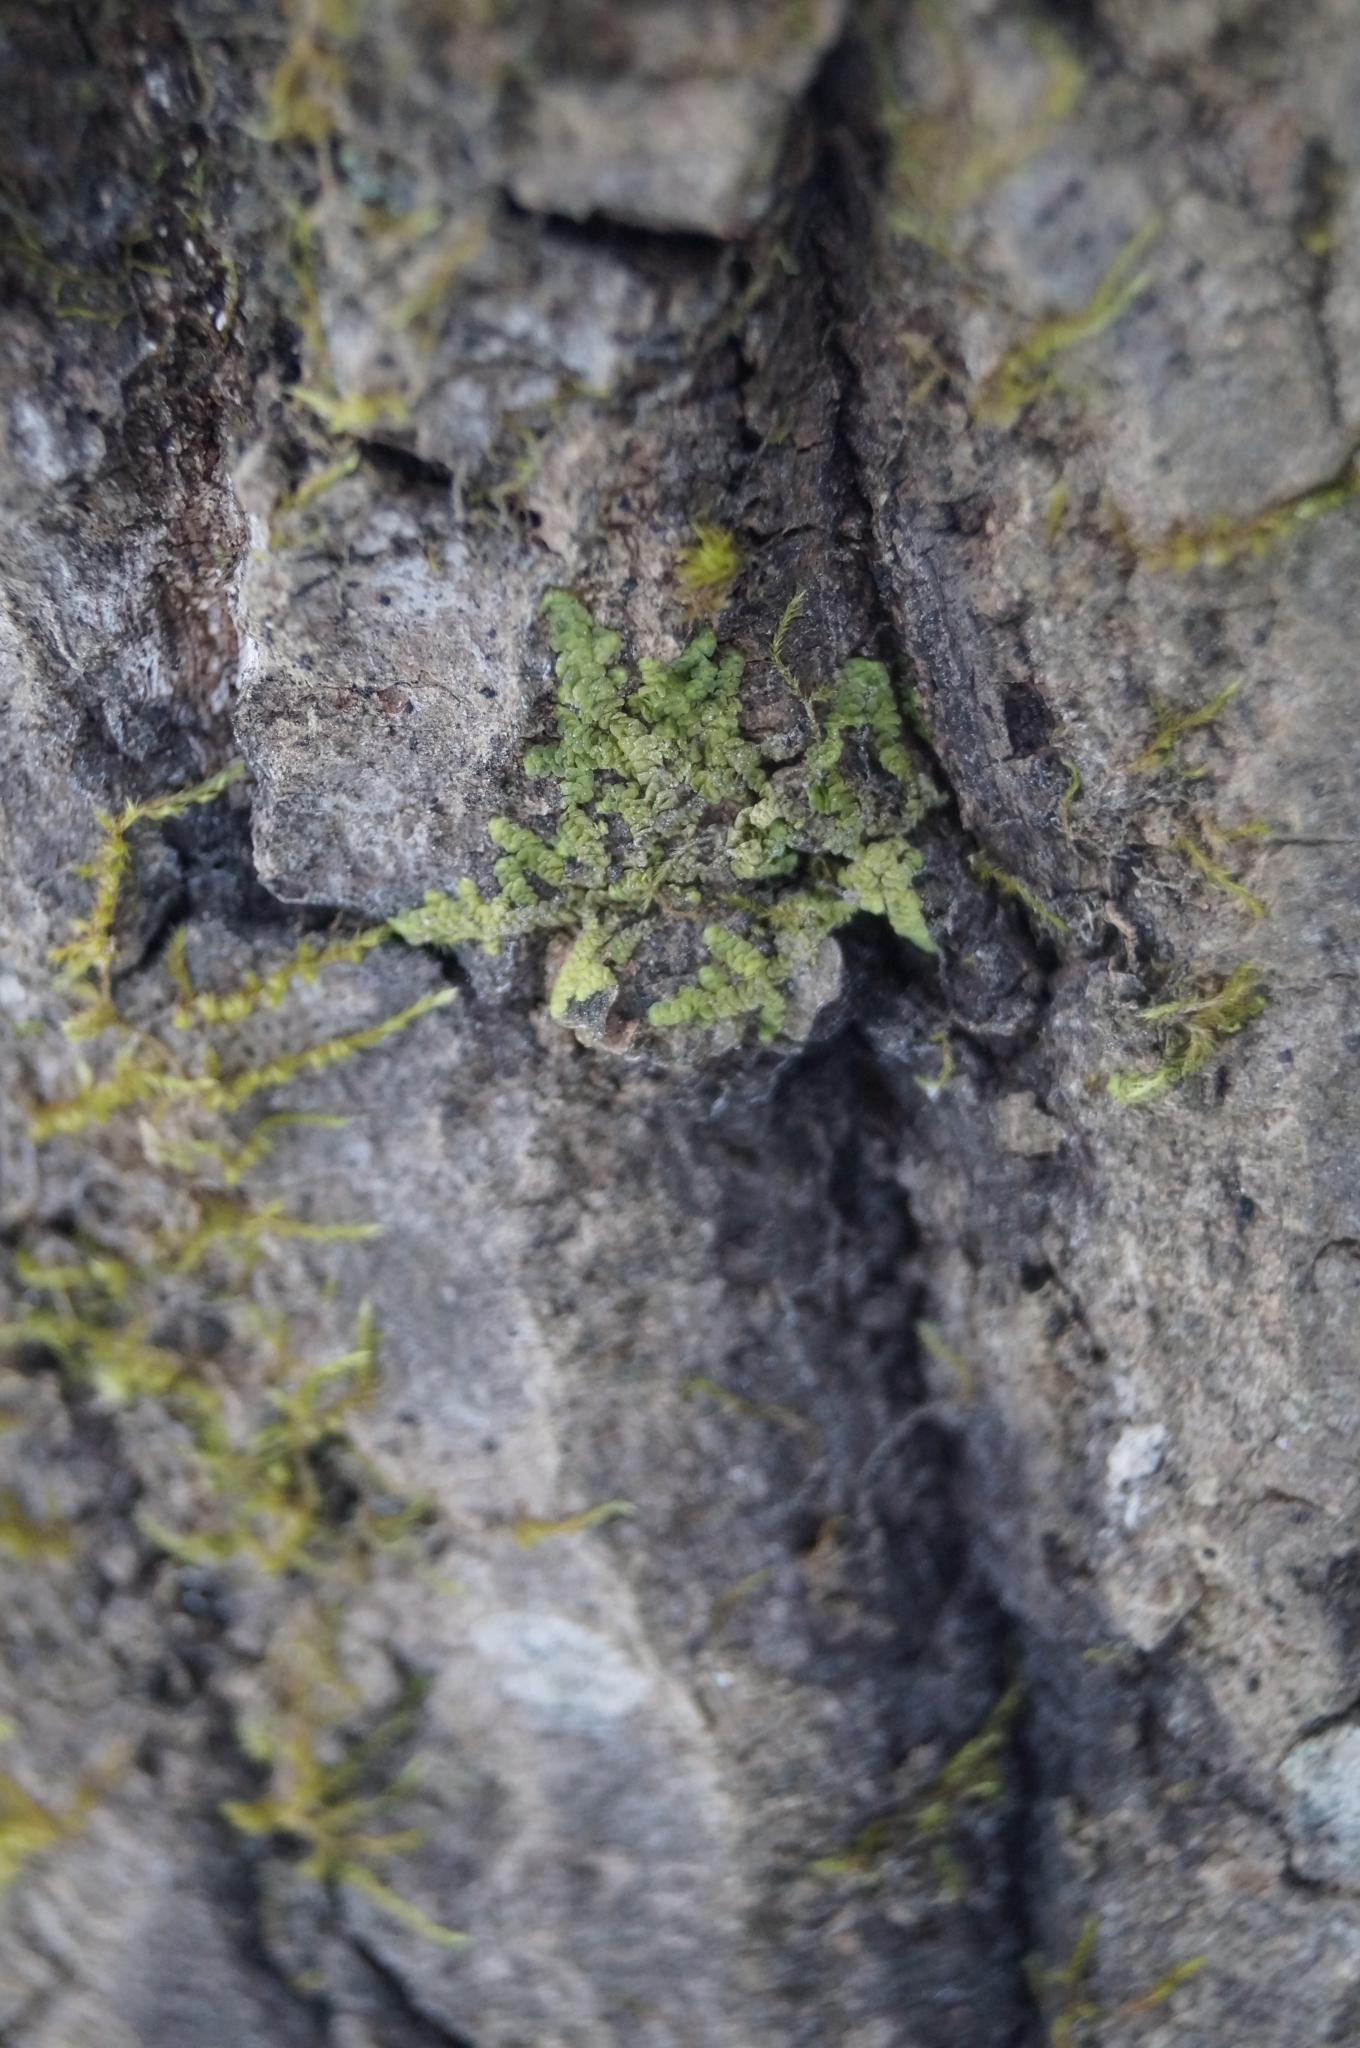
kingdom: Plantae
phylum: Marchantiophyta
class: Jungermanniopsida
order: Porellales
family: Radulaceae
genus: Radula
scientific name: Radula complanata
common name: Flat-leaved scalewort
